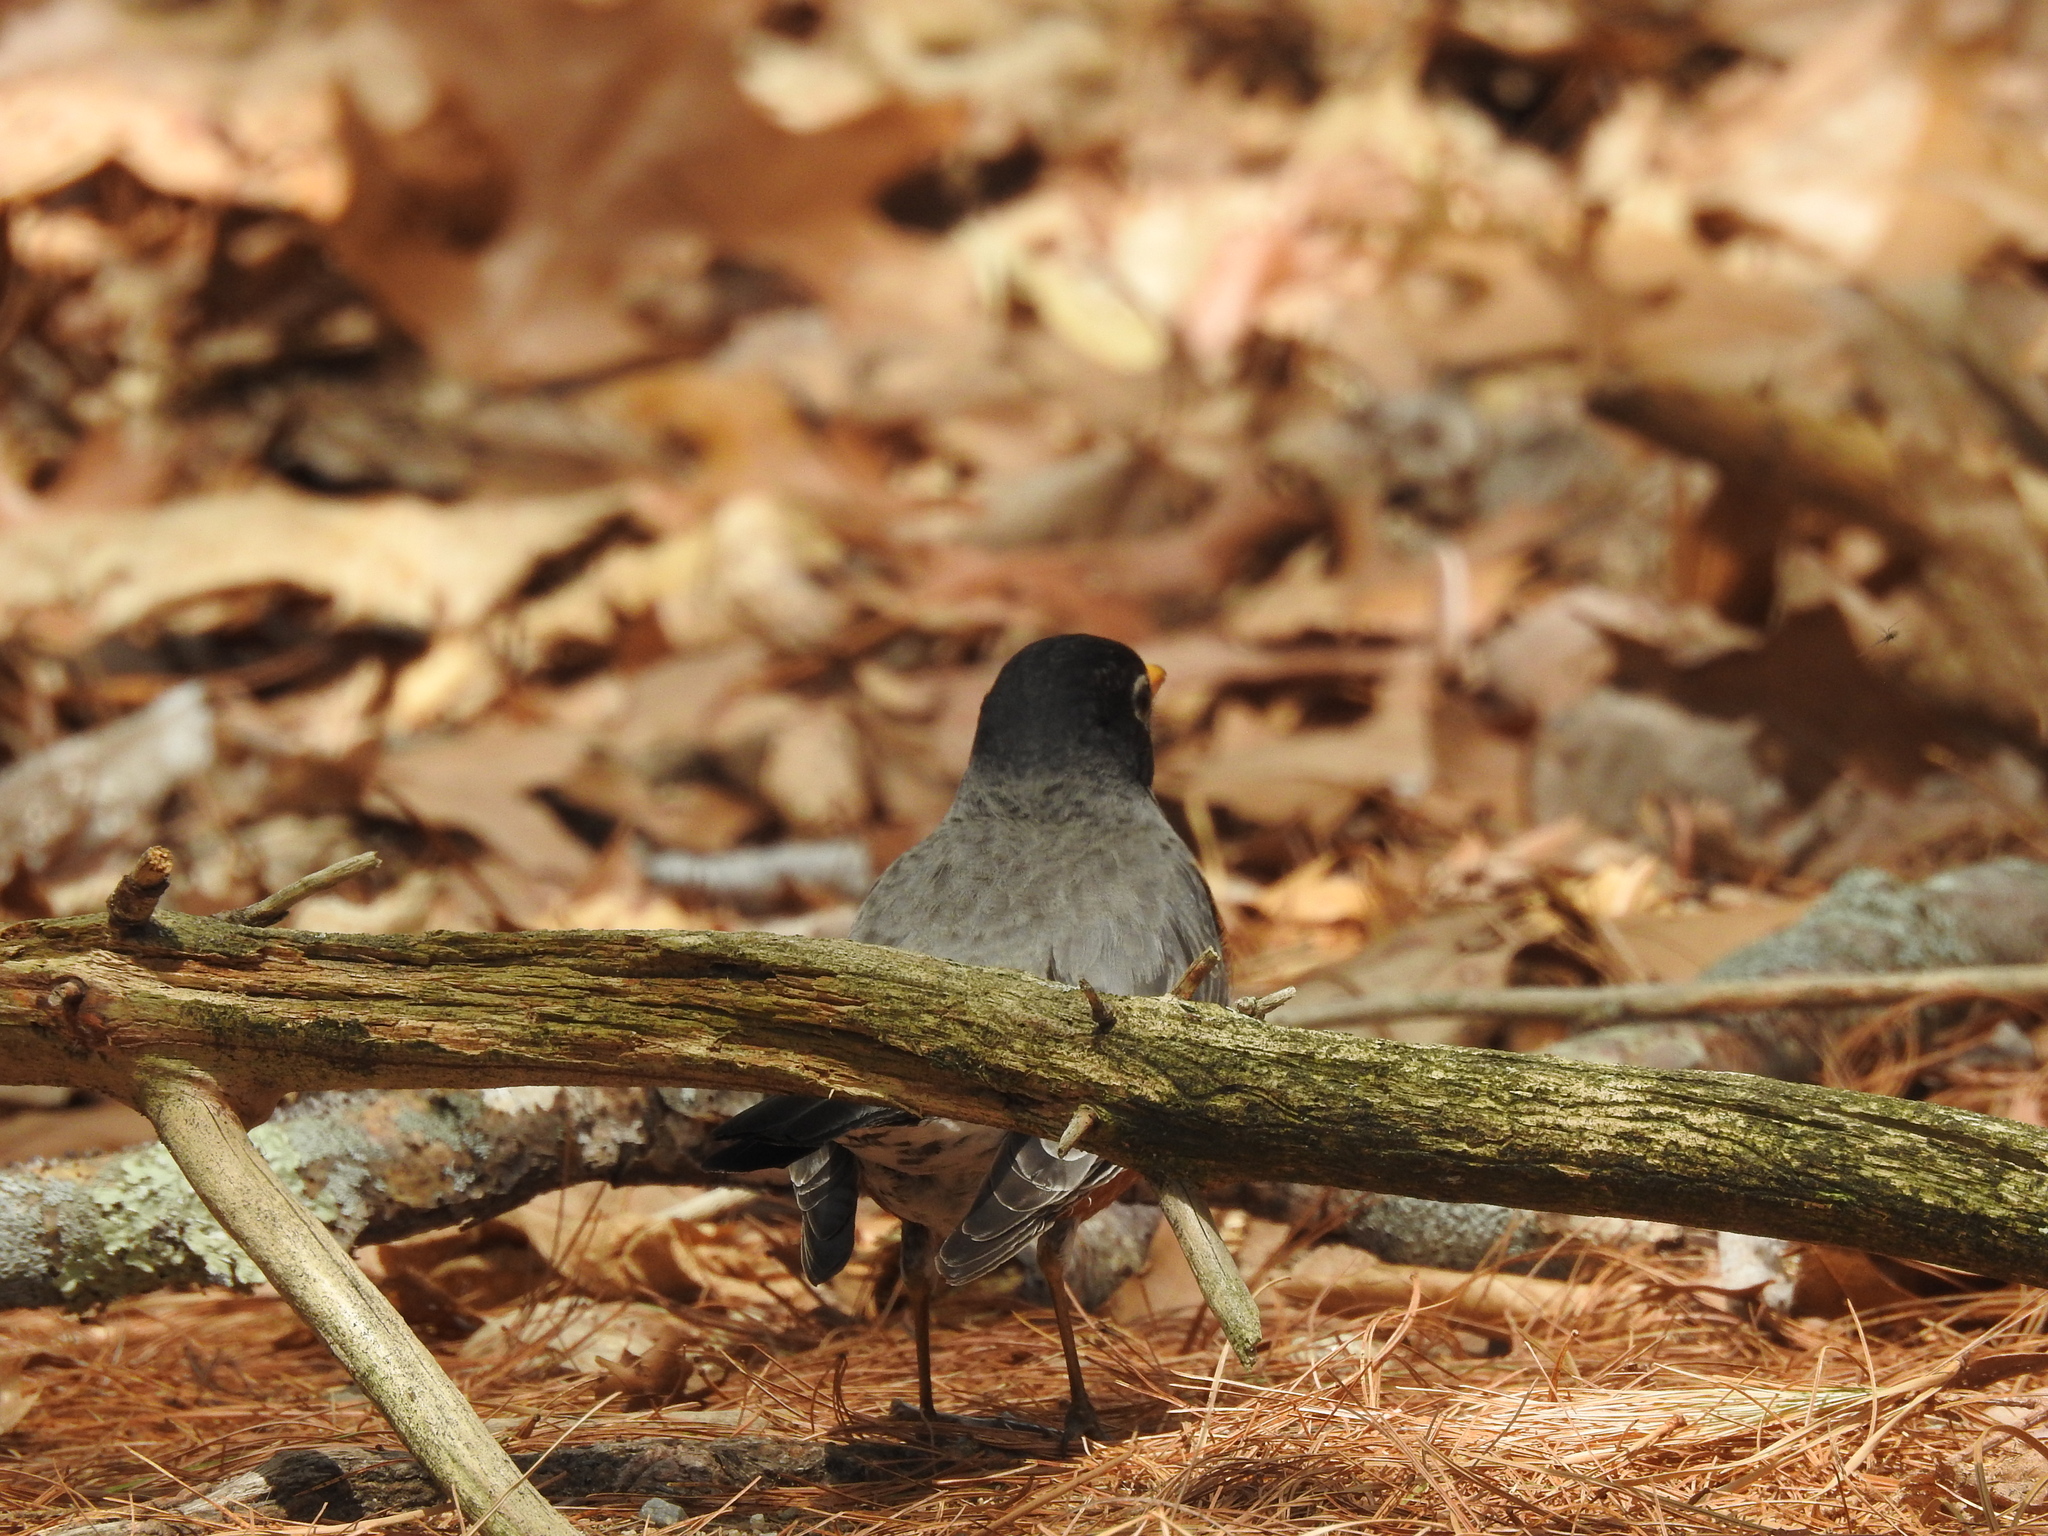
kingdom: Animalia
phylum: Chordata
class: Aves
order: Passeriformes
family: Turdidae
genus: Turdus
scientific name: Turdus migratorius
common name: American robin
